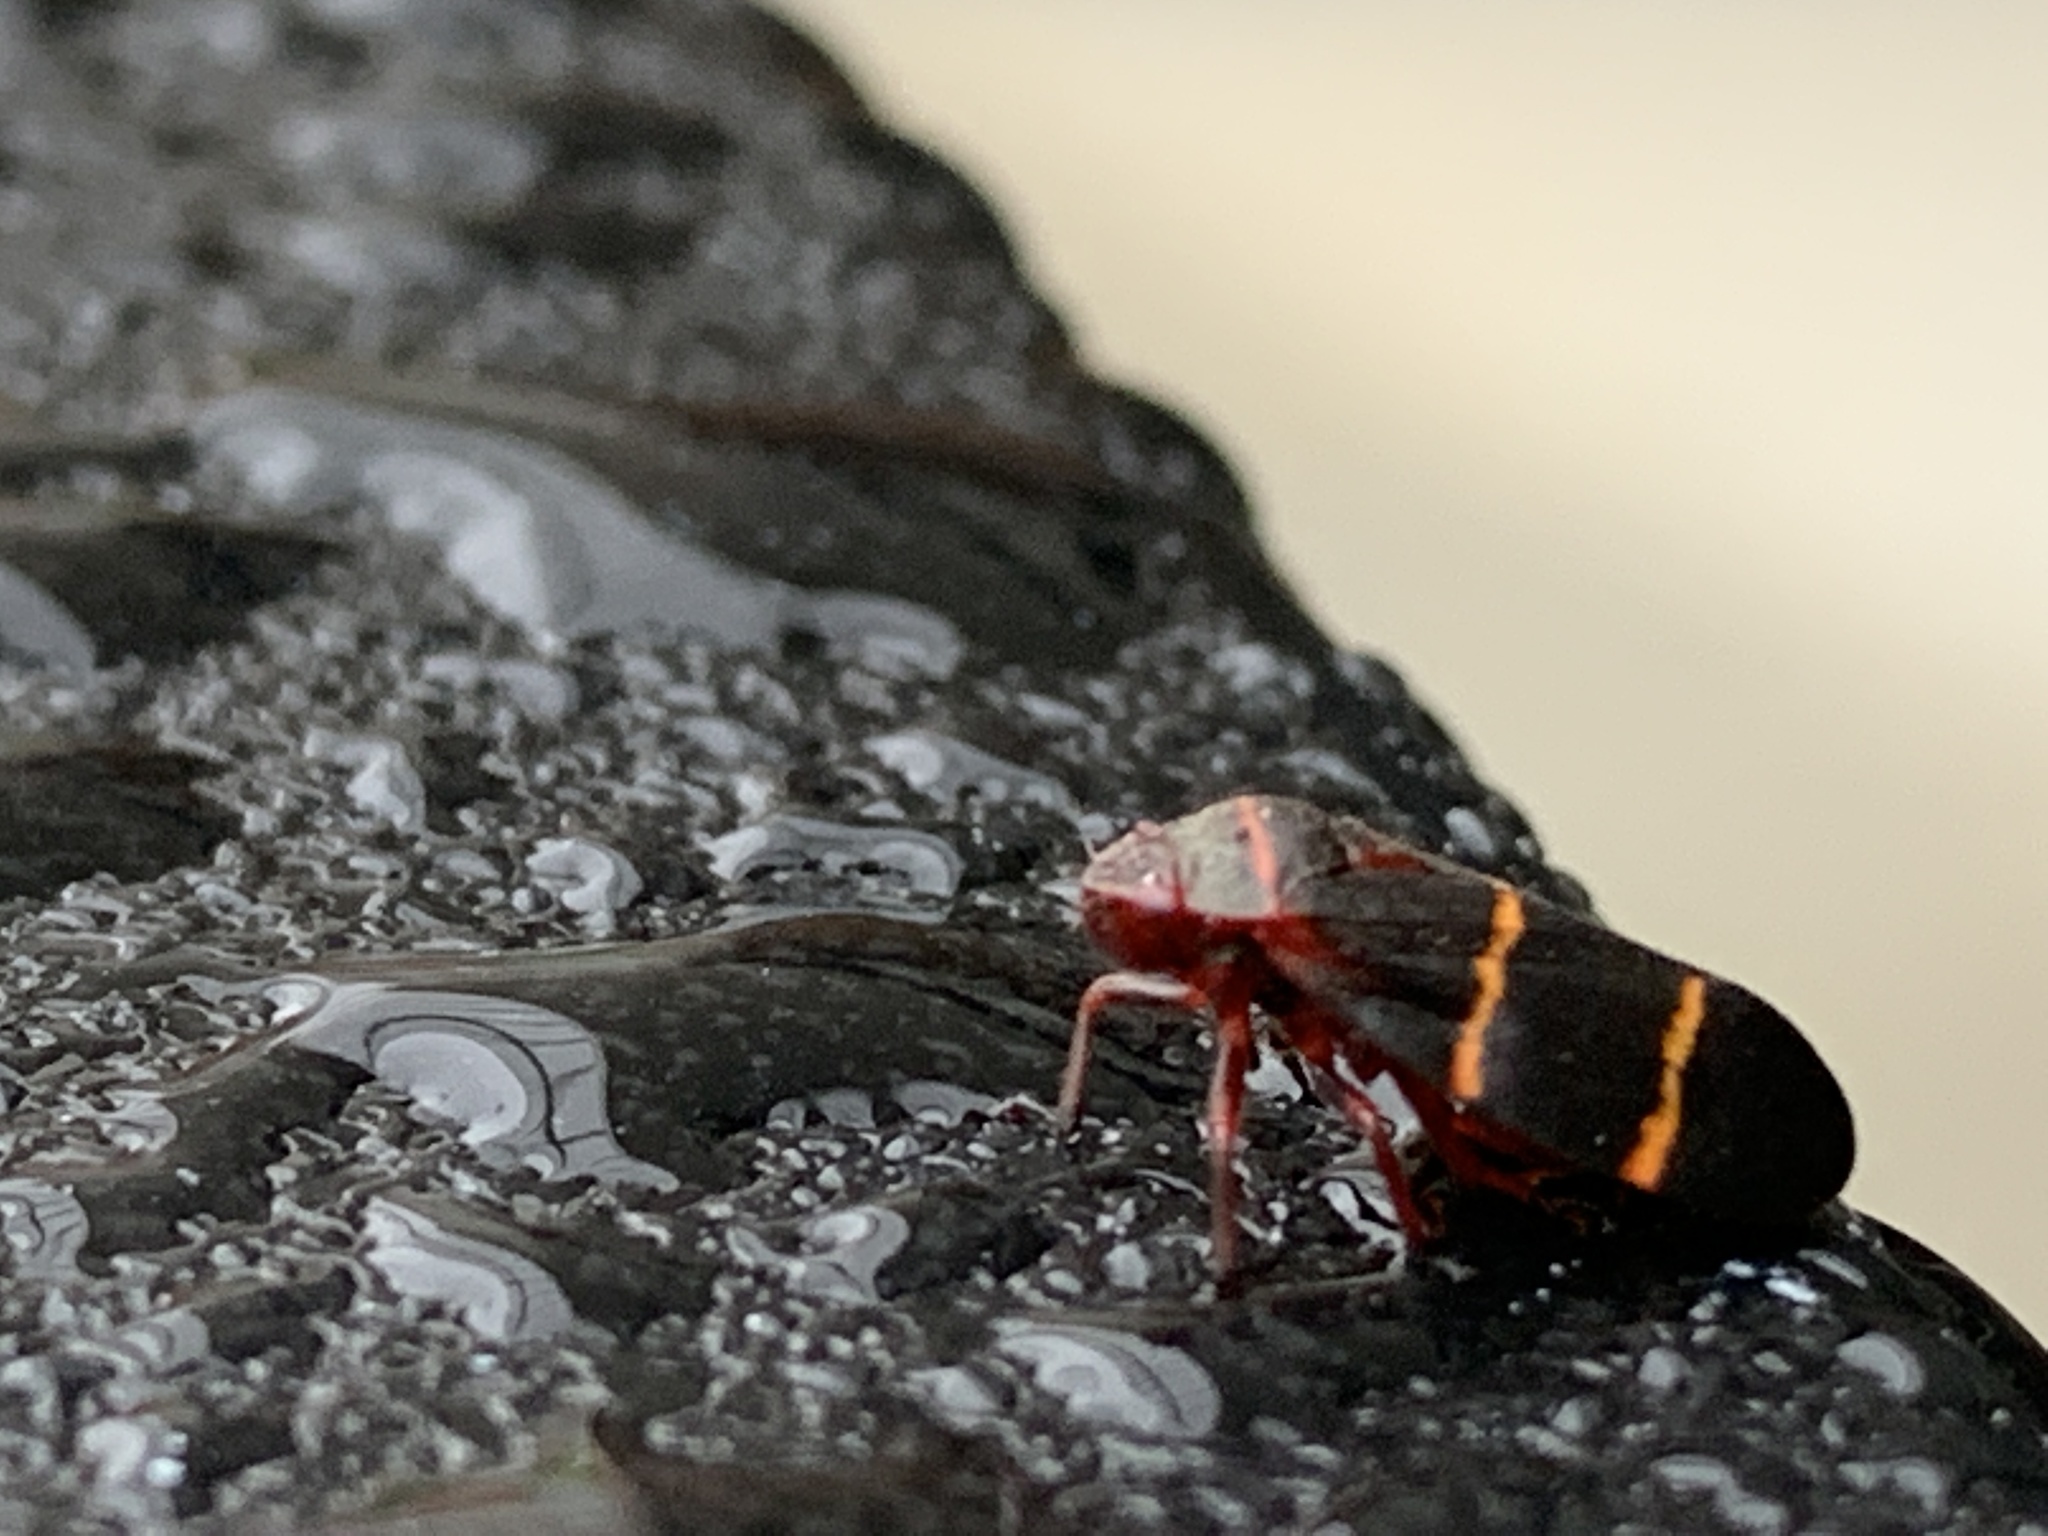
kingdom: Animalia
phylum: Arthropoda
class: Insecta
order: Hemiptera
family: Cercopidae
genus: Prosapia
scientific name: Prosapia bicincta
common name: Twolined spittlebug
